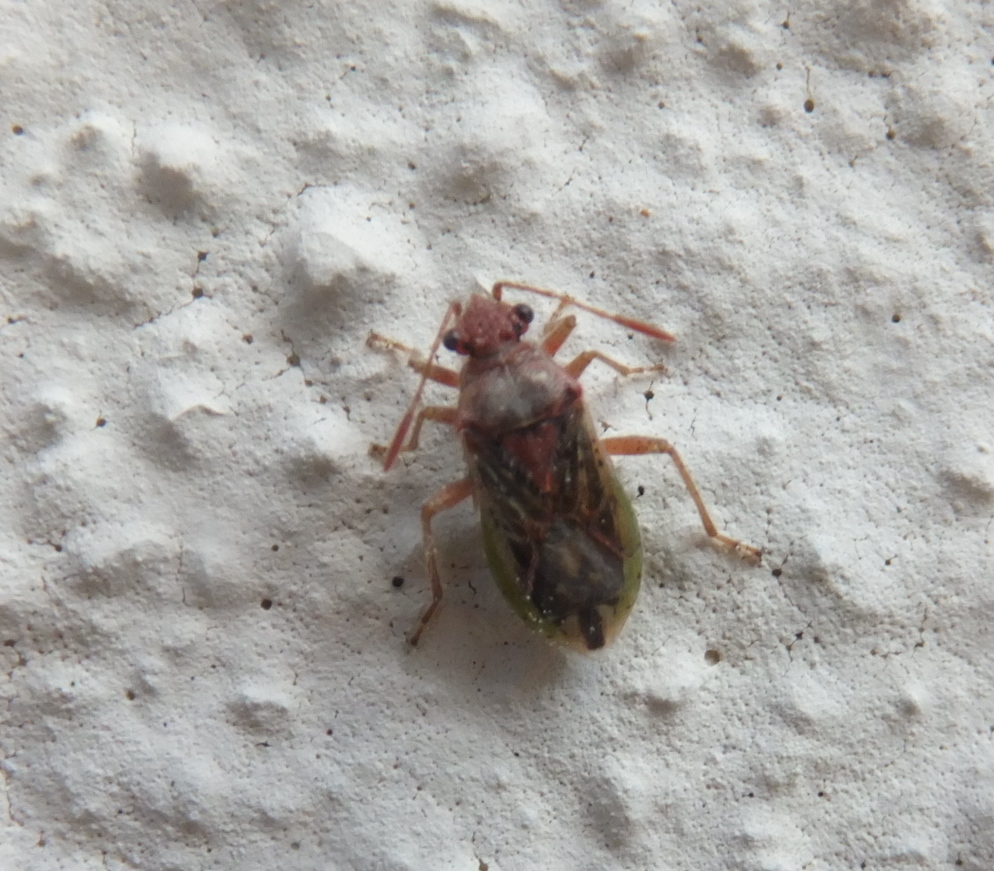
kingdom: Animalia
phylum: Arthropoda
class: Insecta
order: Hemiptera
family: Rhopalidae
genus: Rhopalus
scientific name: Rhopalus parumpunctatus
